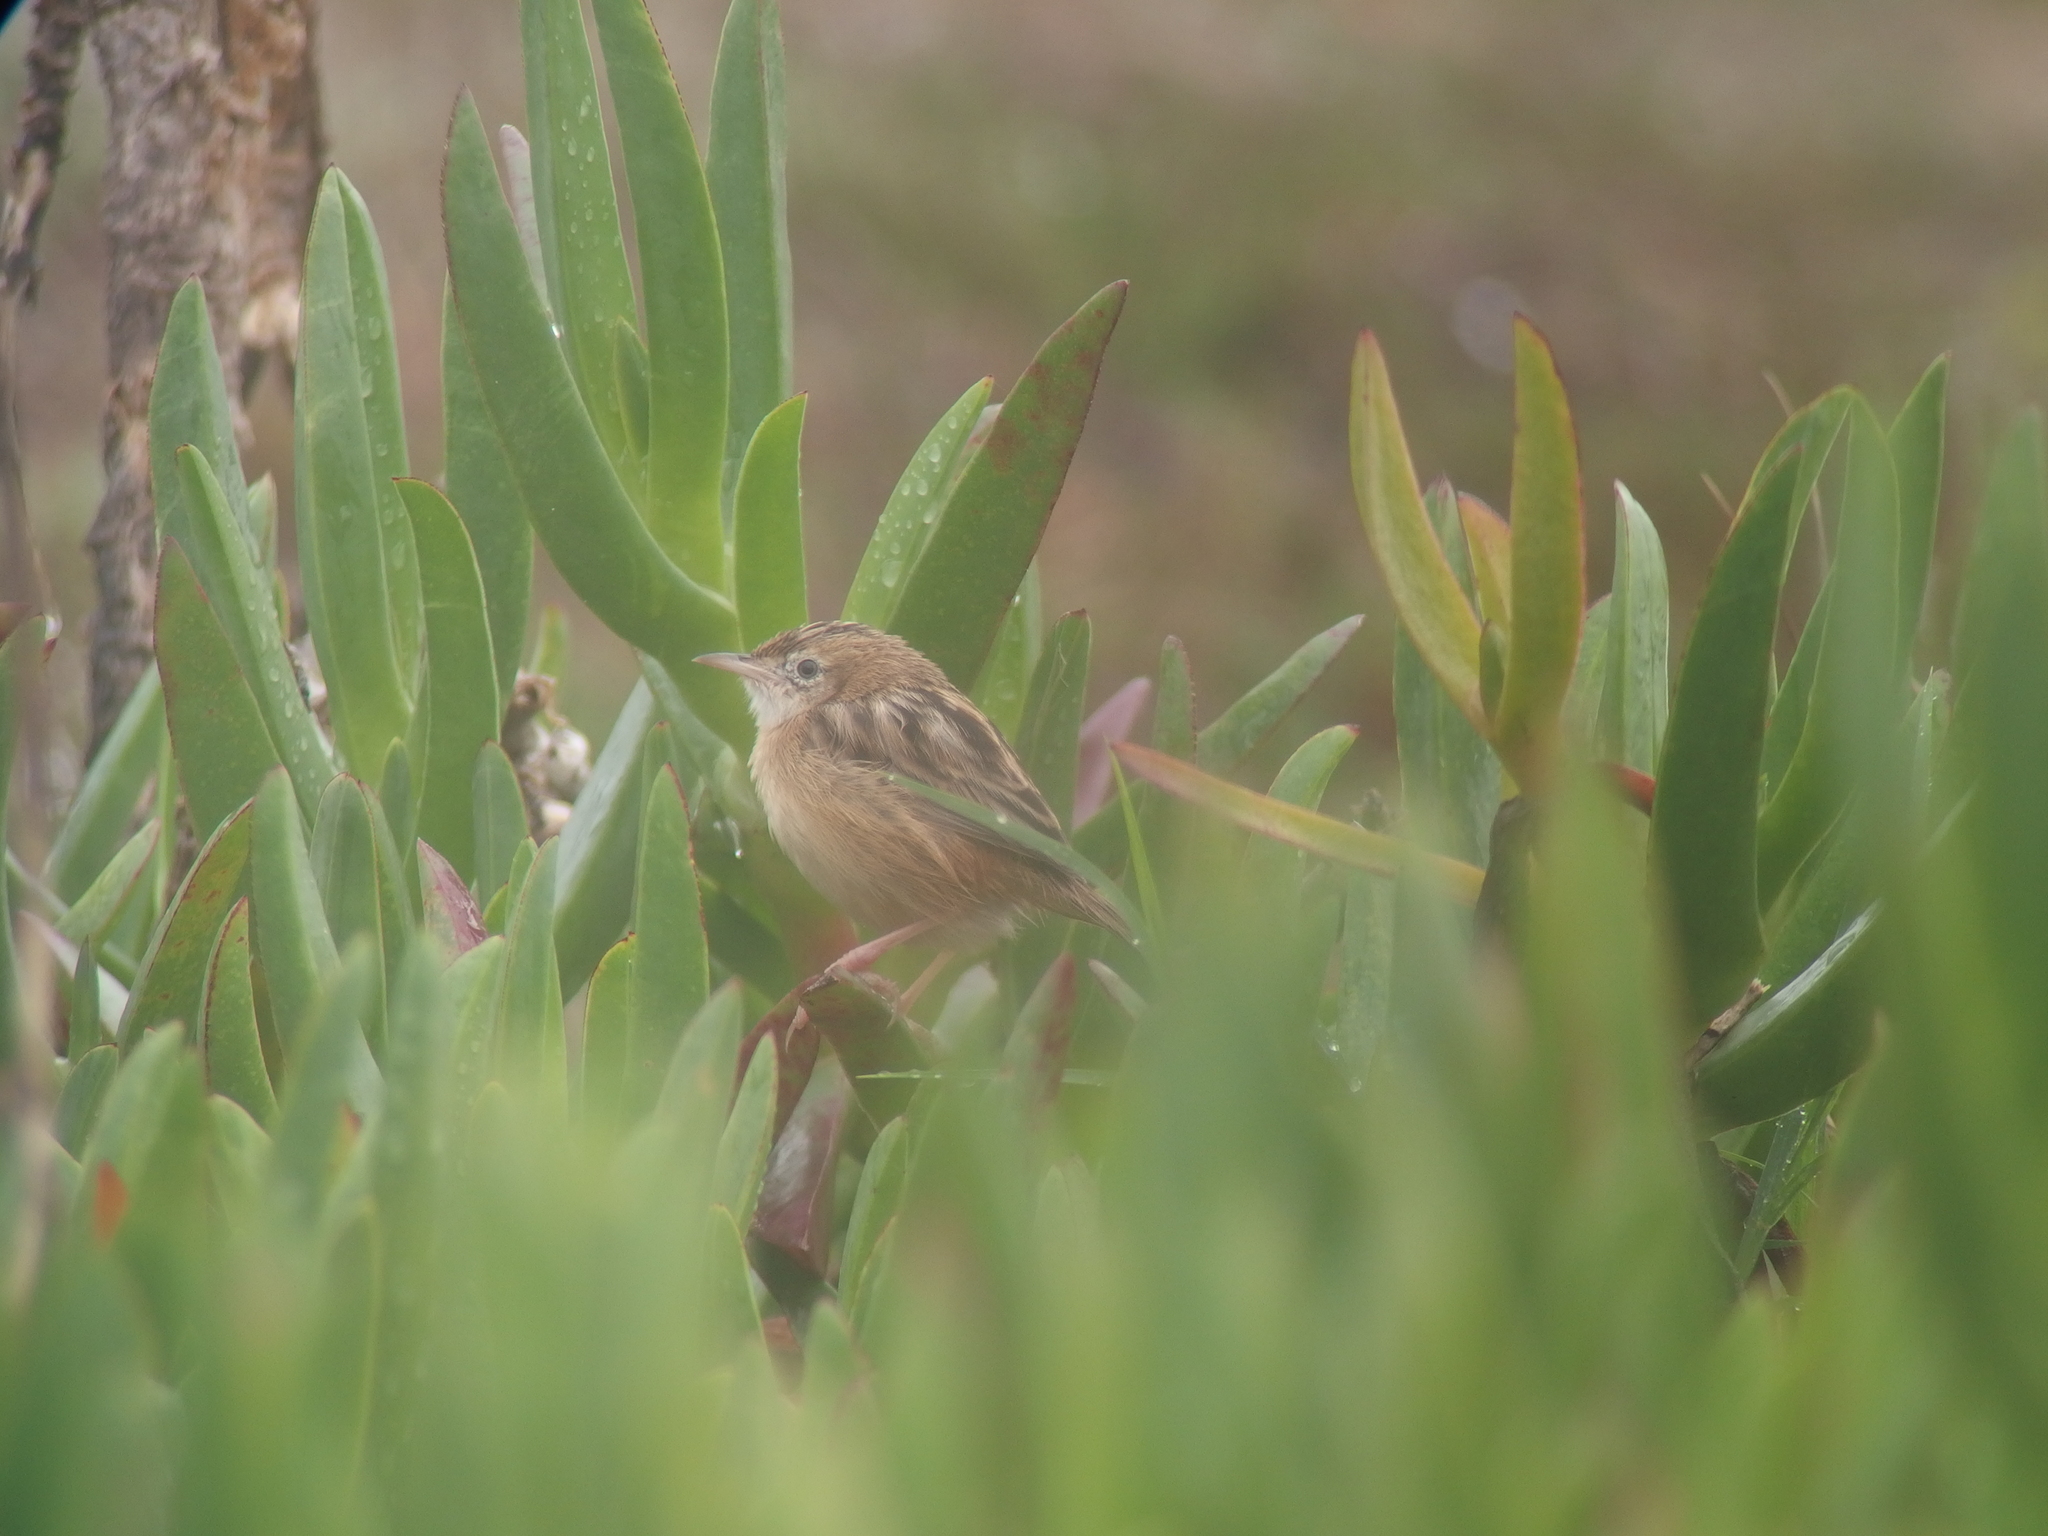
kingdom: Animalia
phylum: Chordata
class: Aves
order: Passeriformes
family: Cisticolidae
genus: Cisticola
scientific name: Cisticola juncidis
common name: Zitting cisticola
